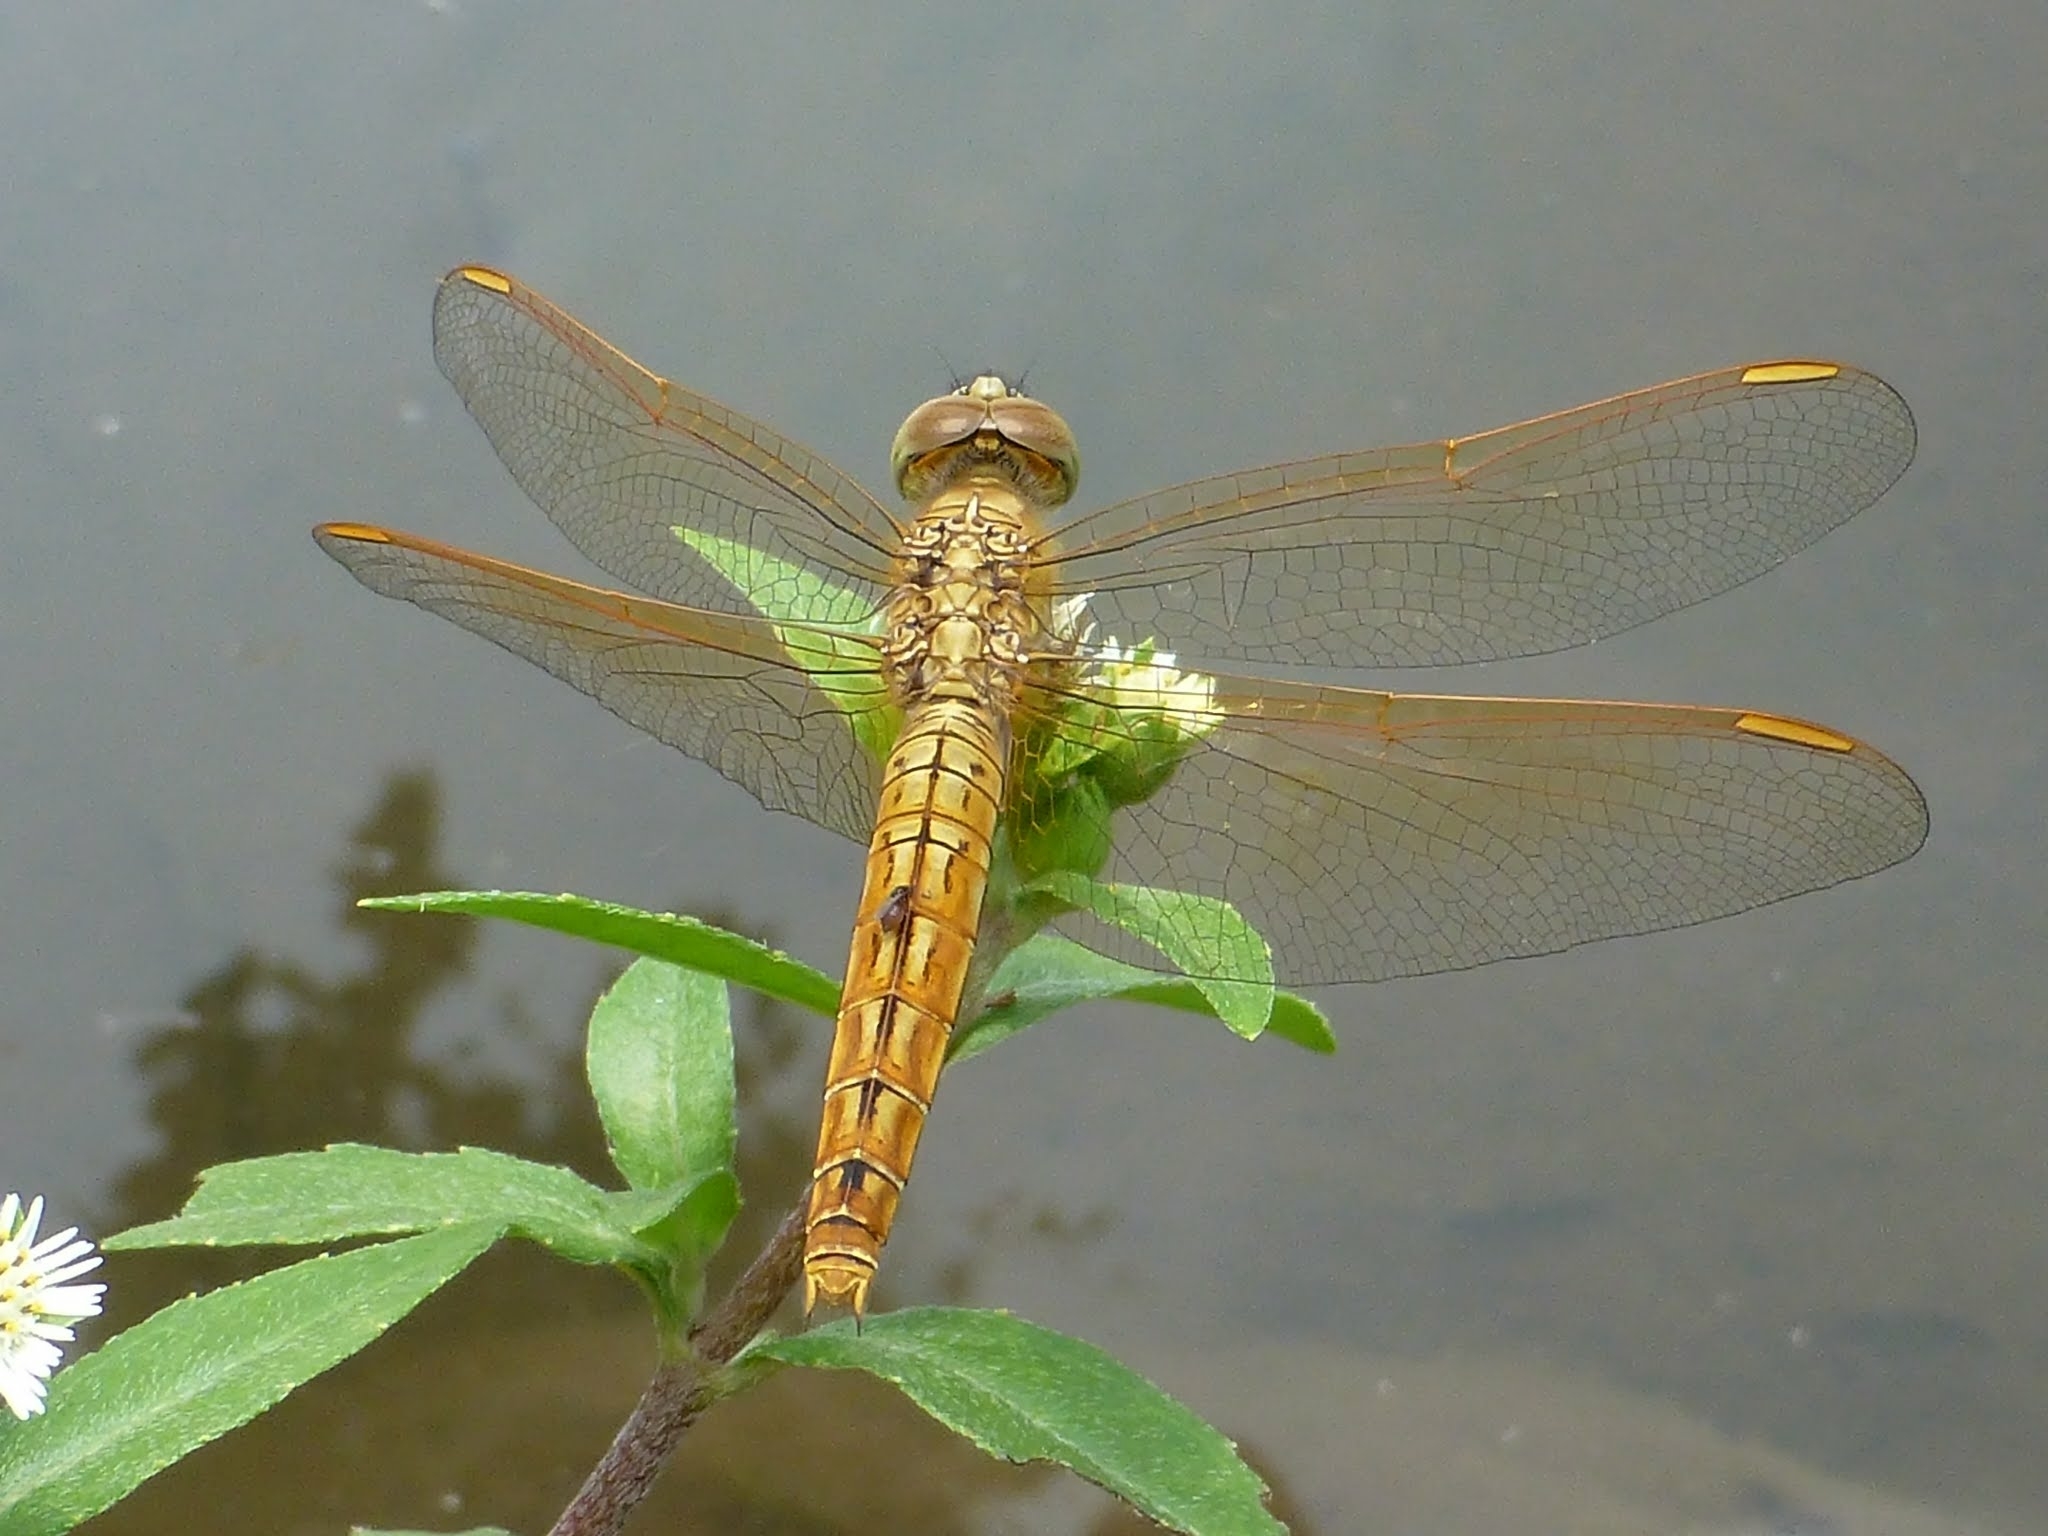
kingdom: Animalia
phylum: Arthropoda
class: Insecta
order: Odonata
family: Libellulidae
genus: Brachythemis
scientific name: Brachythemis contaminata
